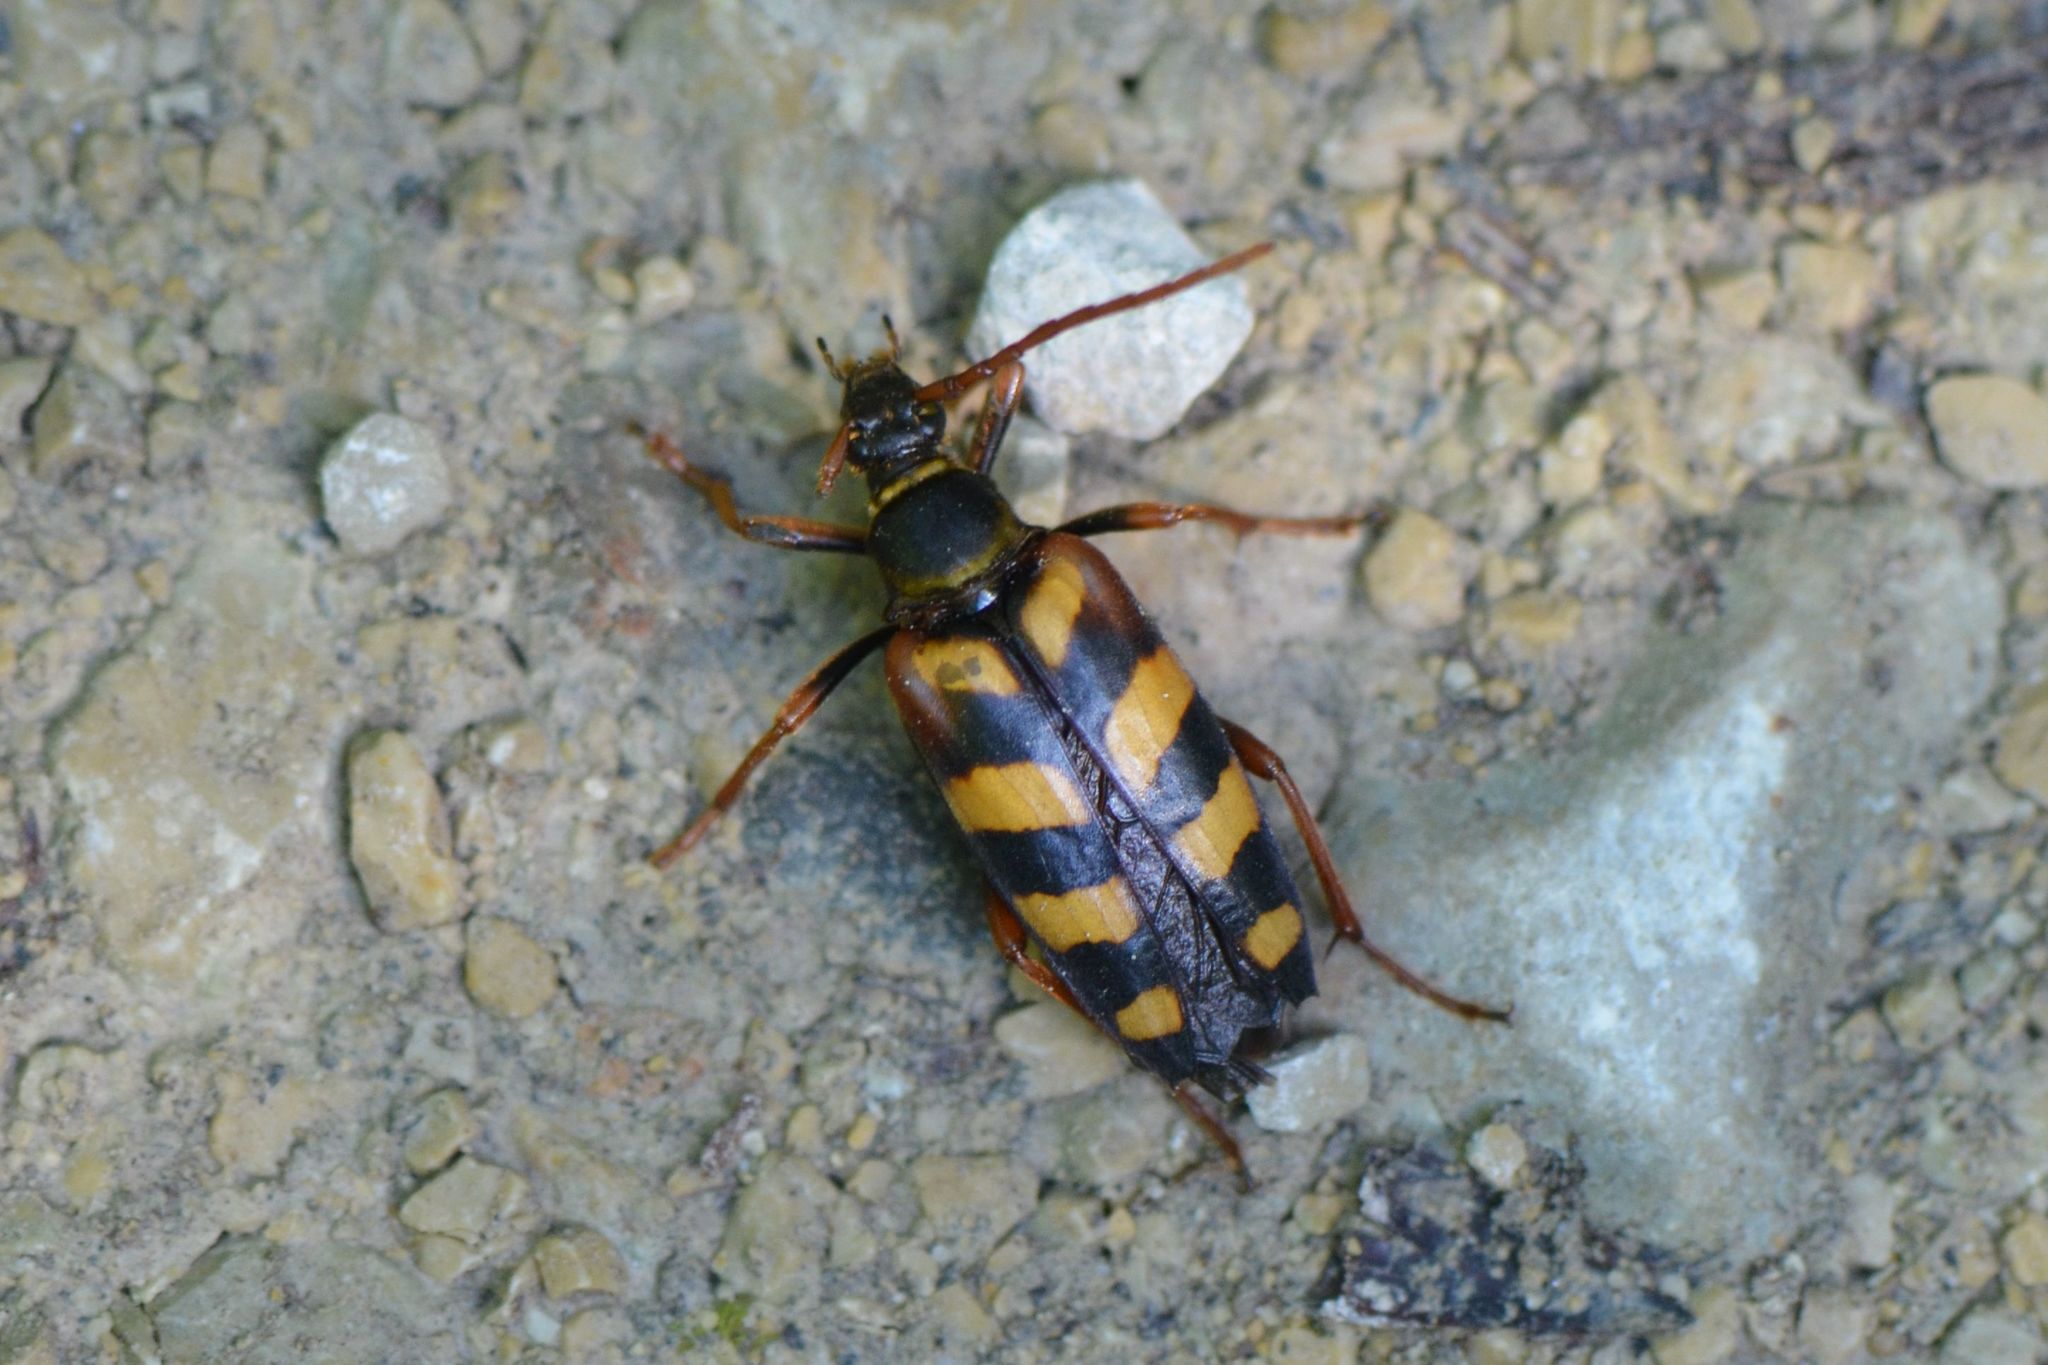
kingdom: Animalia
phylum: Arthropoda
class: Insecta
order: Coleoptera
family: Cerambycidae
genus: Leptura
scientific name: Leptura aurulenta
